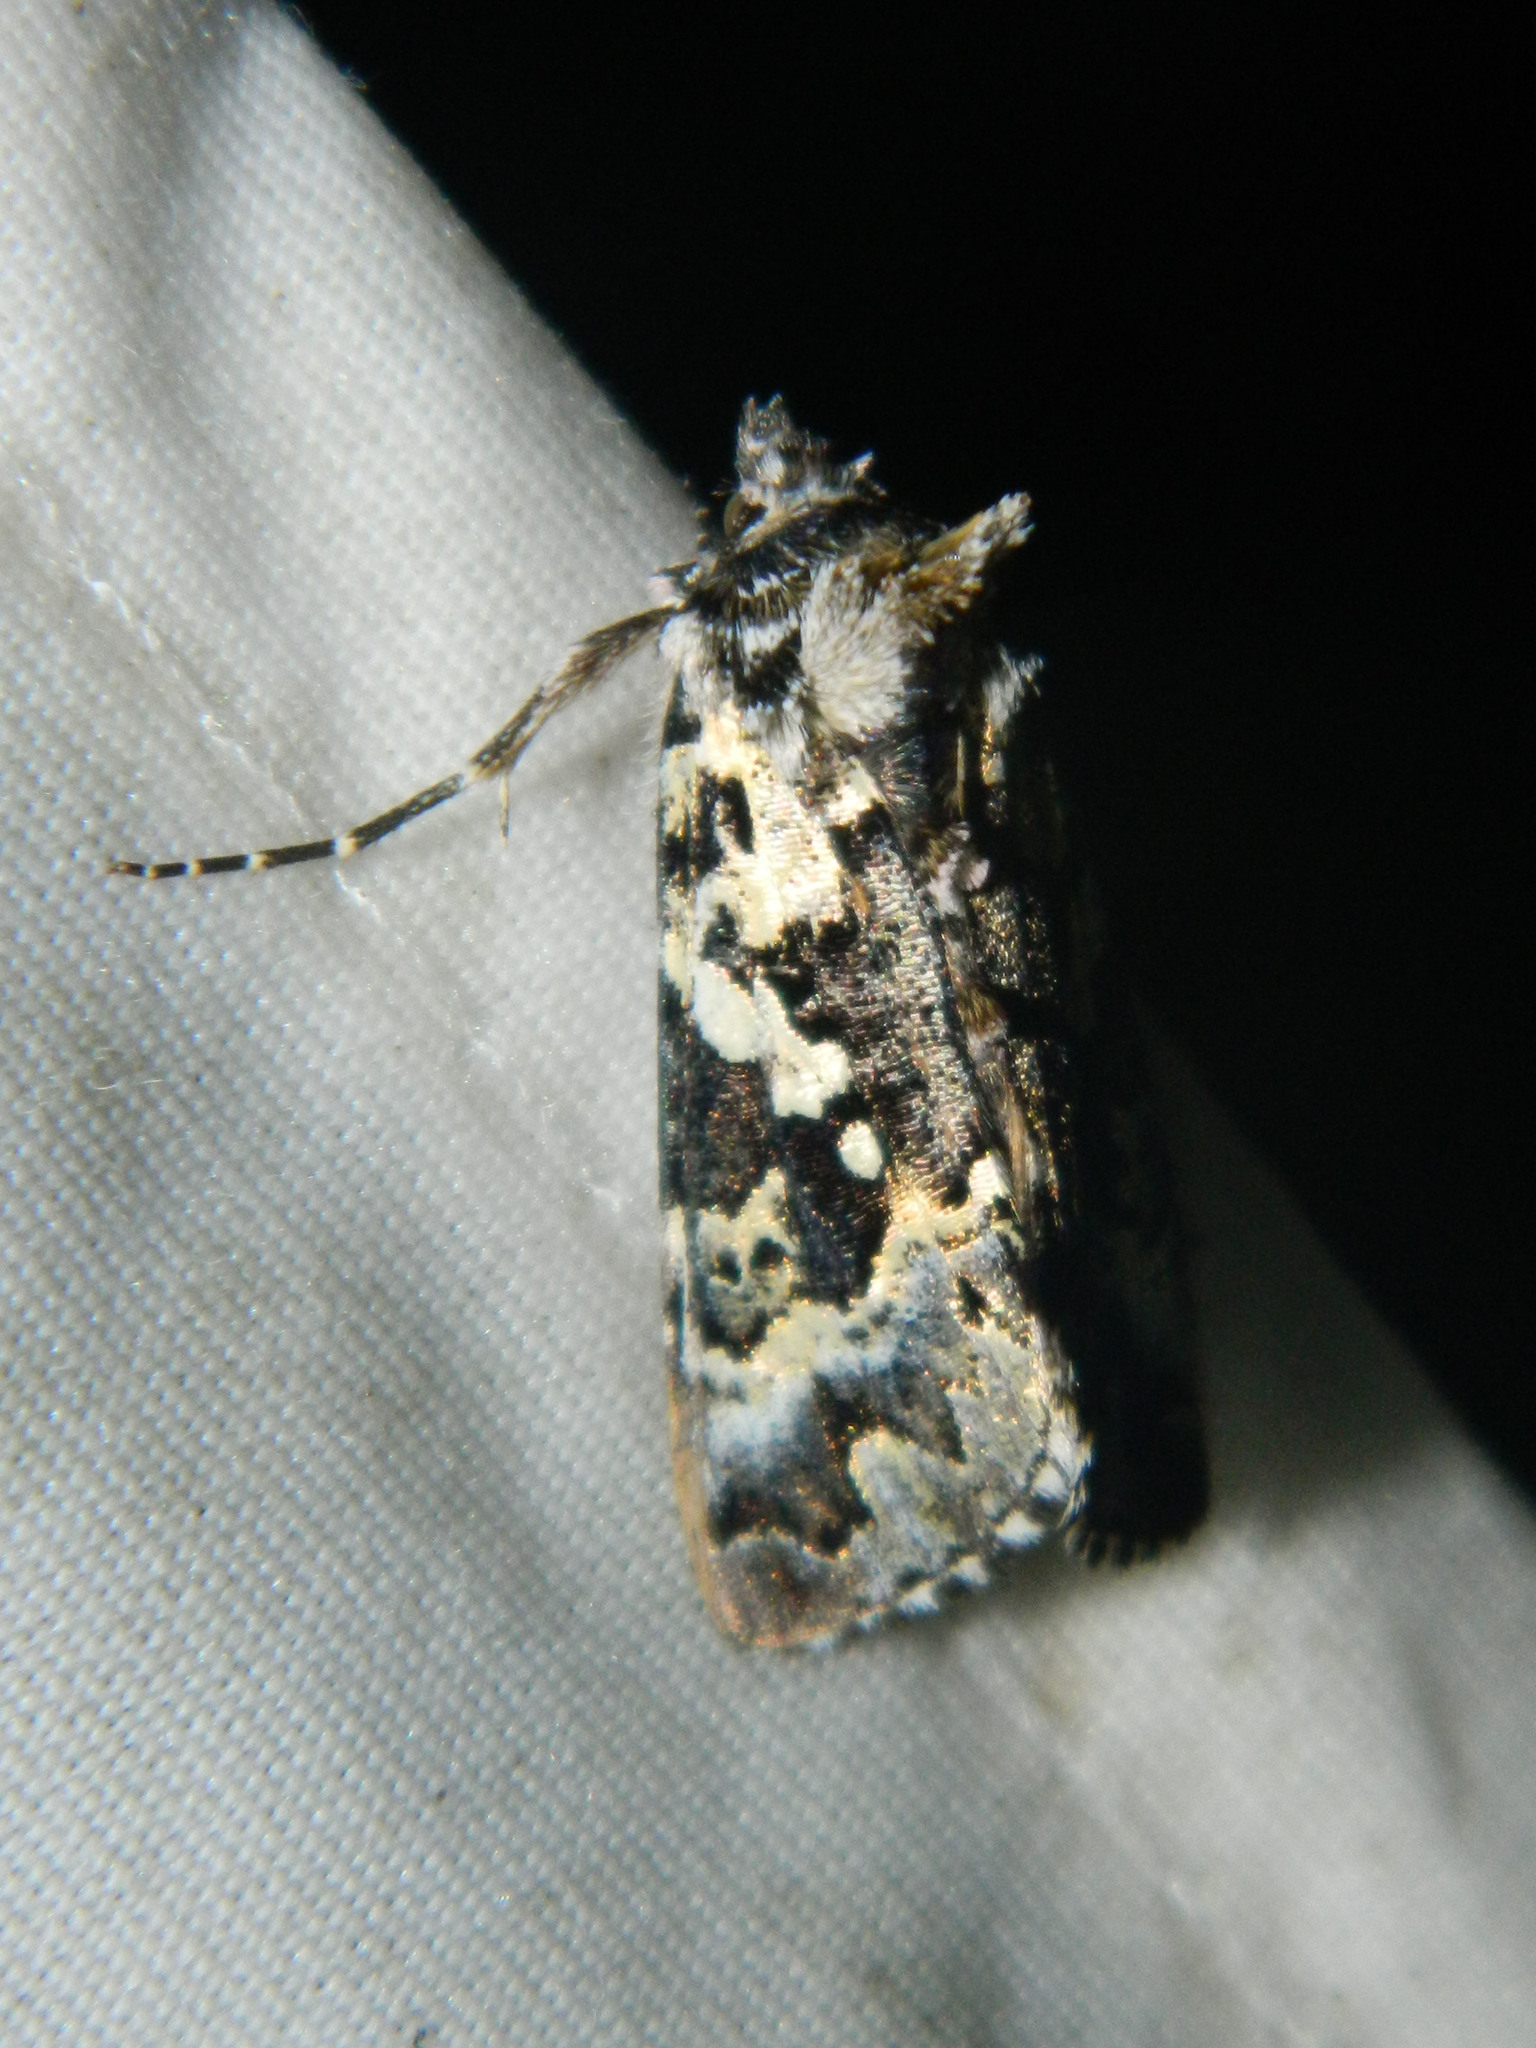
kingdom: Animalia
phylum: Arthropoda
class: Insecta
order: Lepidoptera
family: Noctuidae
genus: Syngrapha
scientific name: Syngrapha rectangula
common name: Angulated cutworm
